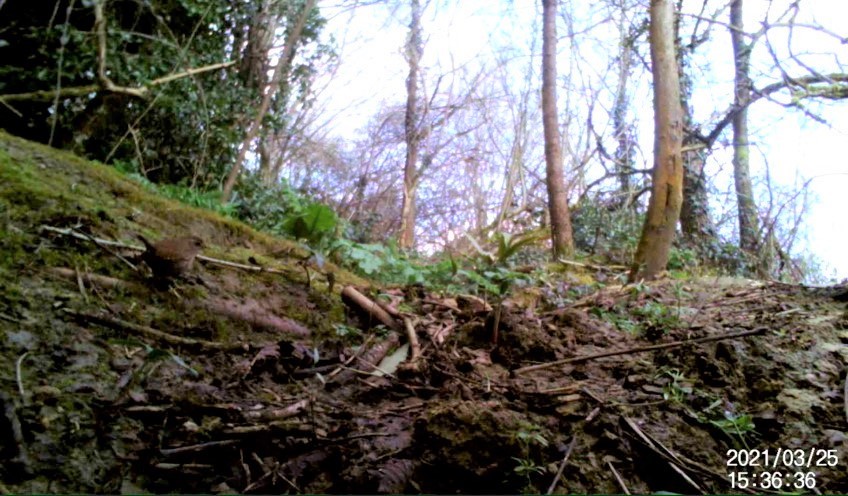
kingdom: Animalia
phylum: Chordata
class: Aves
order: Passeriformes
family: Troglodytidae
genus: Troglodytes
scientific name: Troglodytes troglodytes
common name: Eurasian wren
